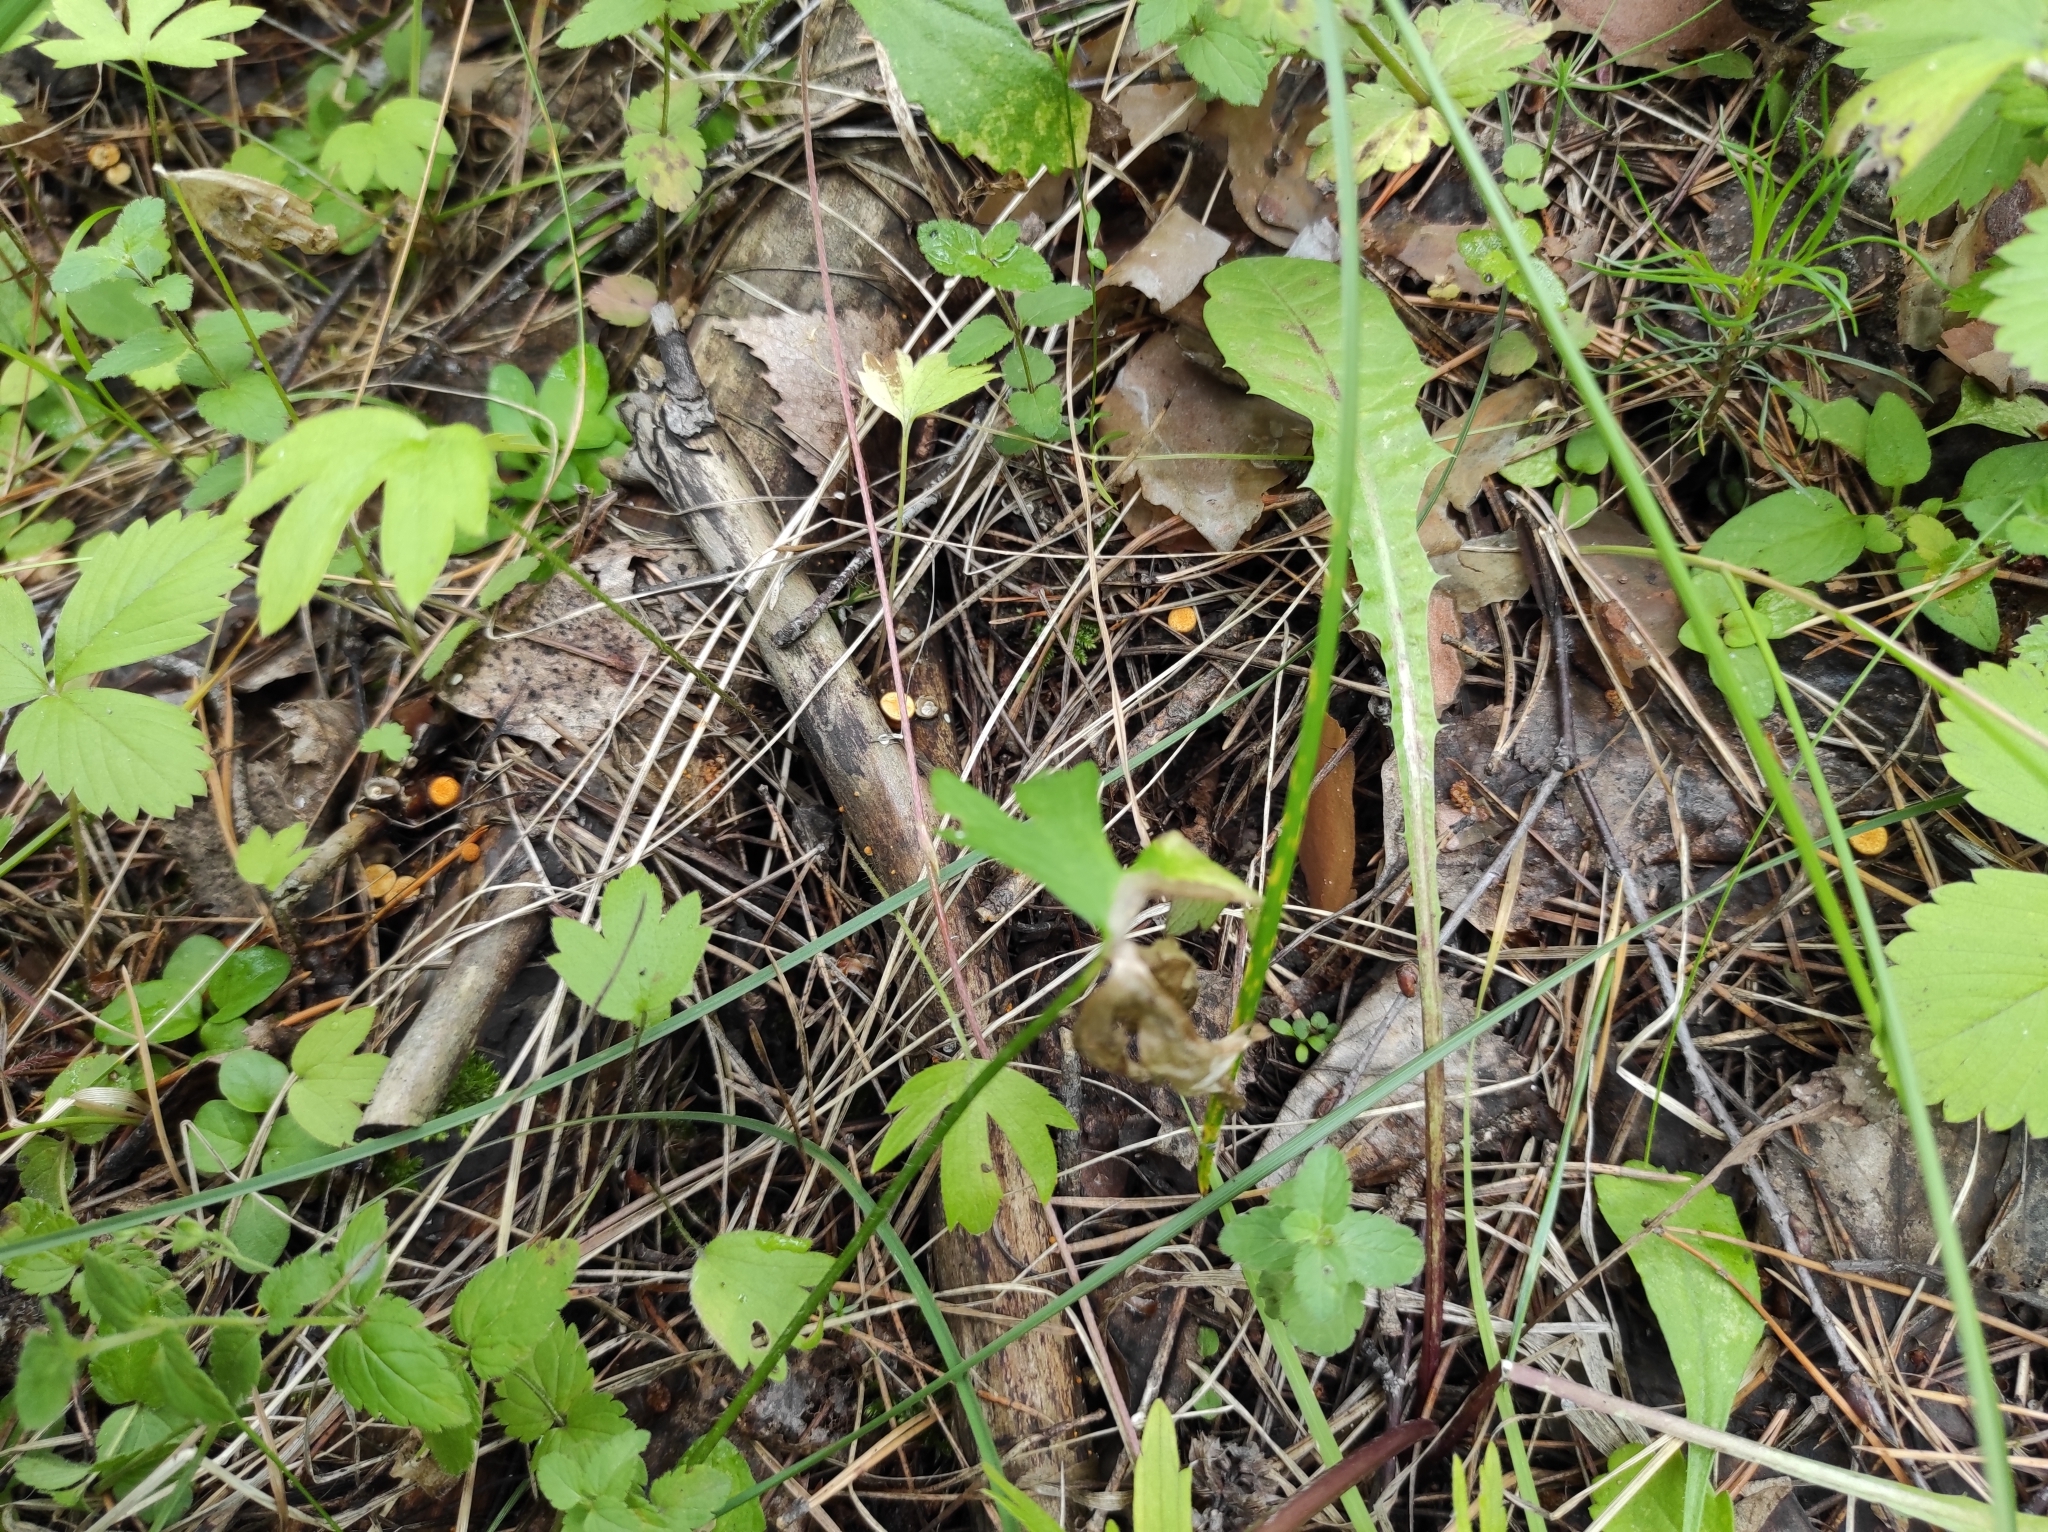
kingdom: Fungi
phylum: Basidiomycota
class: Agaricomycetes
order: Agaricales
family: Nidulariaceae
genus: Crucibulum
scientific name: Crucibulum laeve
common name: Common bird's nest
